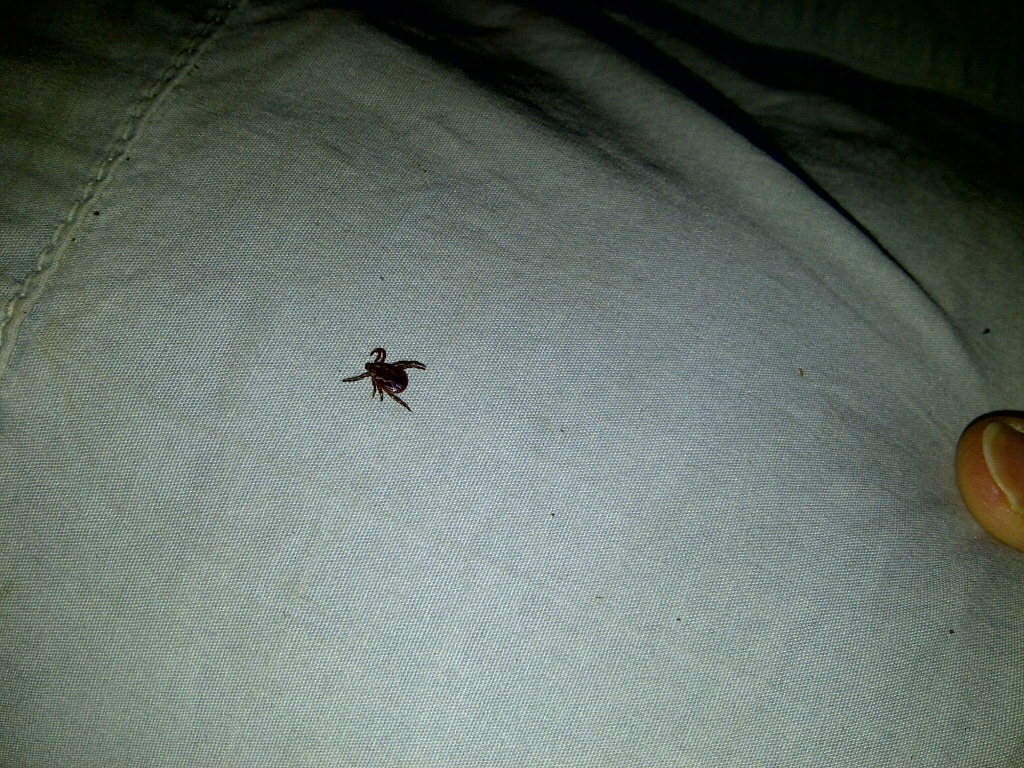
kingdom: Animalia
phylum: Arthropoda
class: Arachnida
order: Ixodida
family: Ixodidae
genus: Dermacentor
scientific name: Dermacentor variabilis
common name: American dog tick
